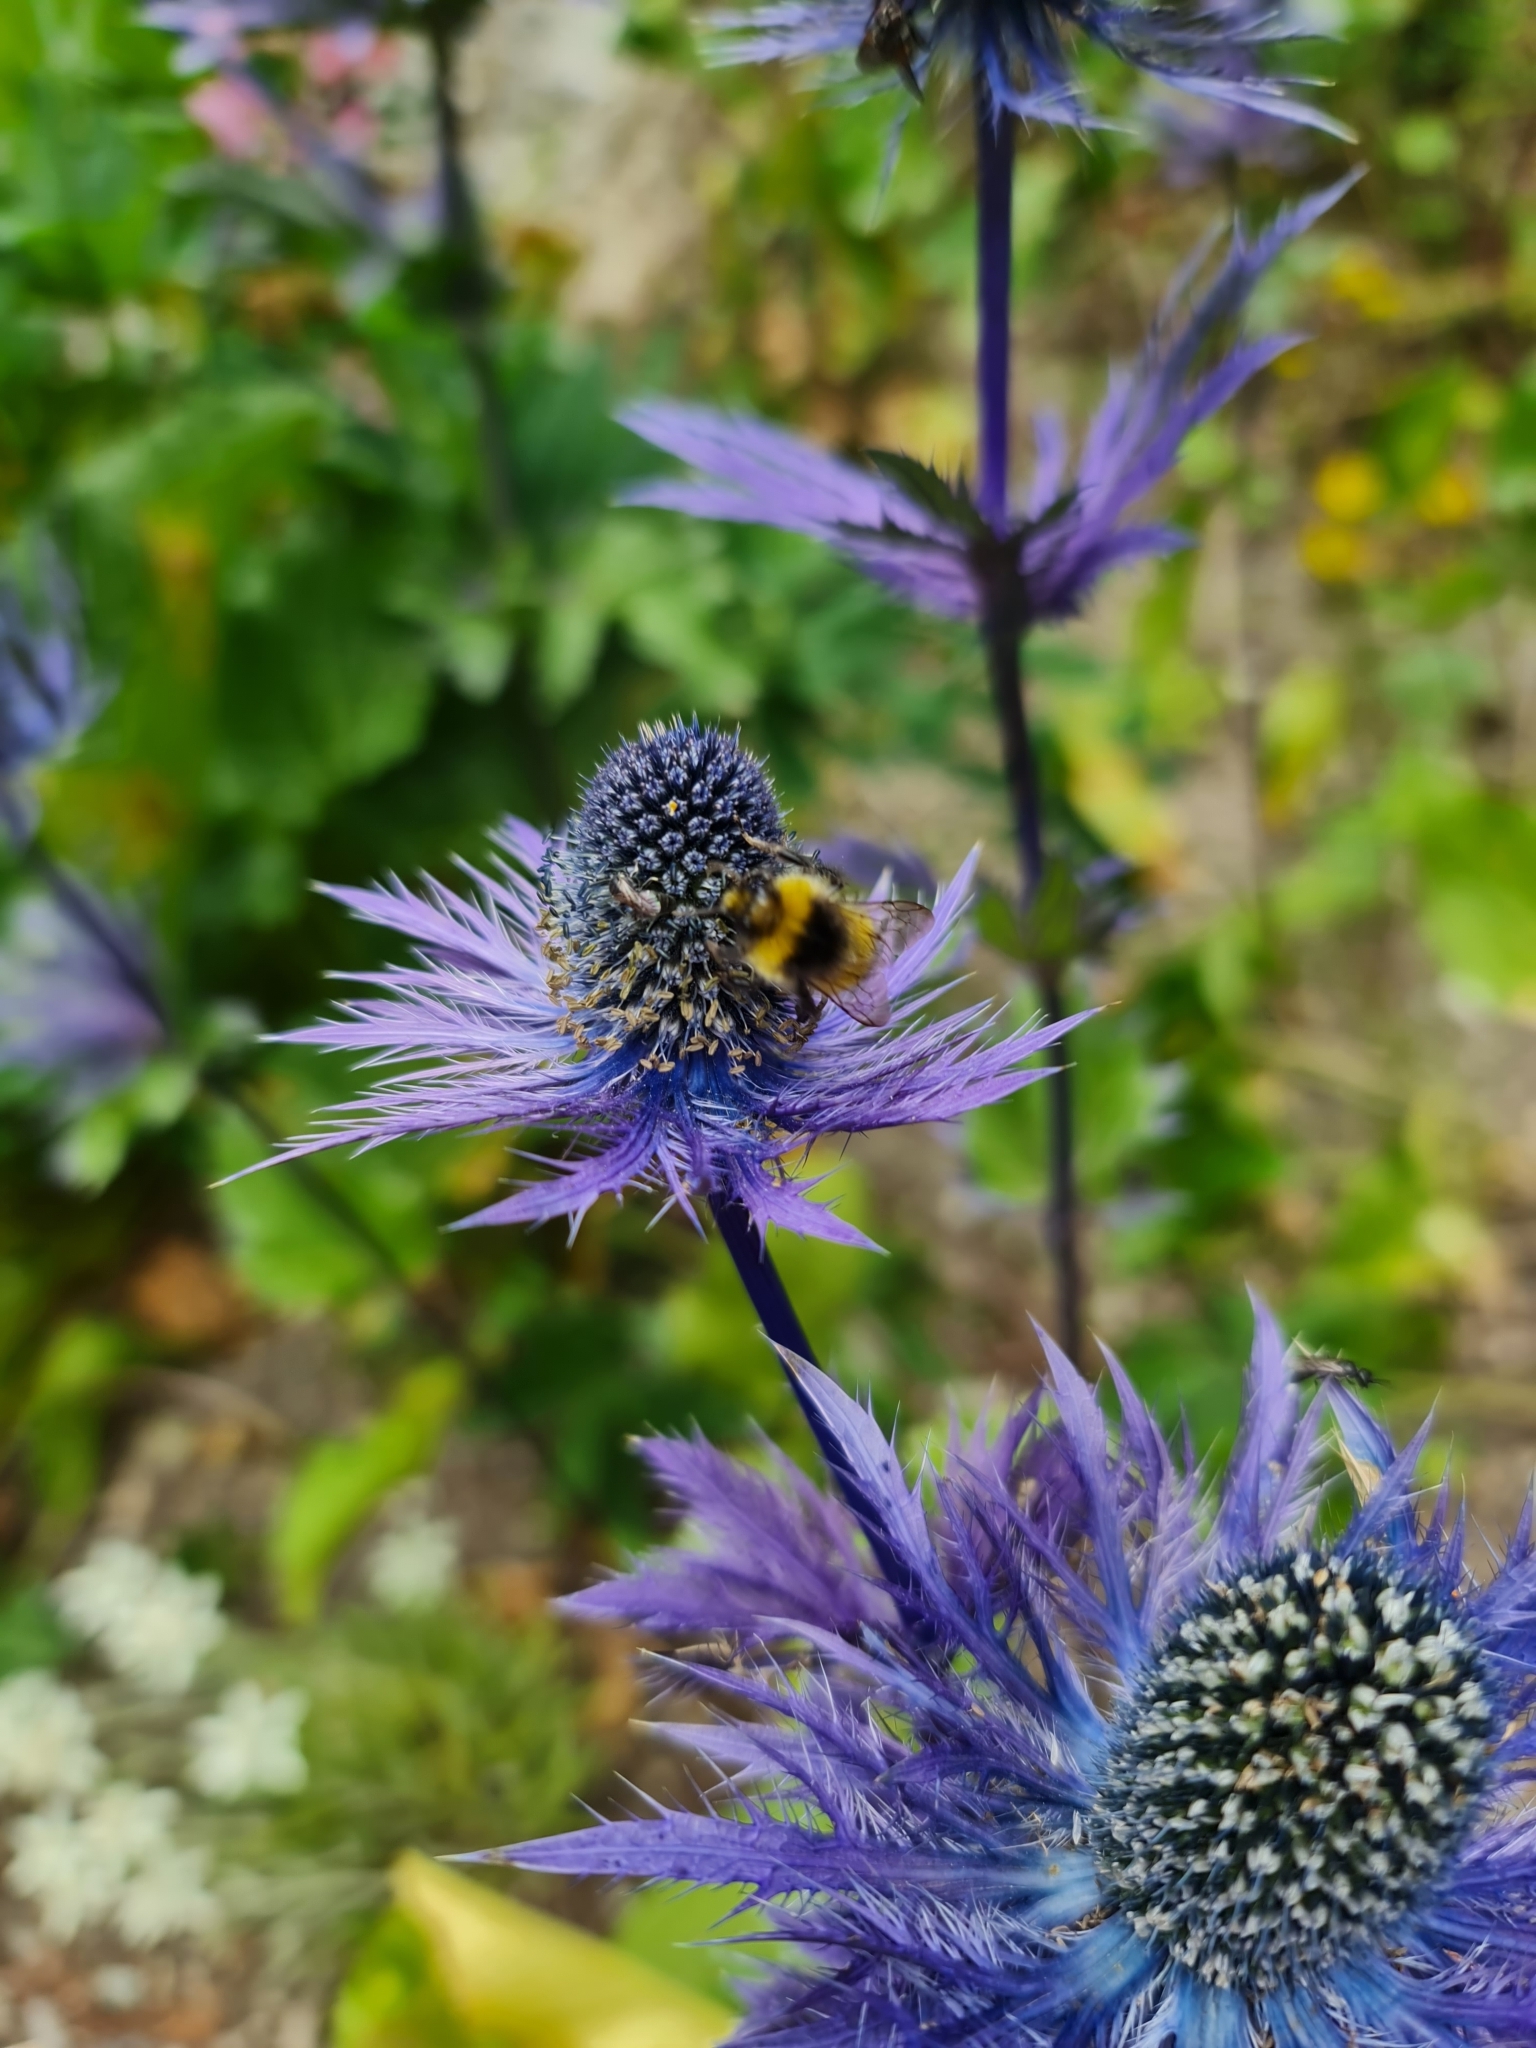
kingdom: Plantae
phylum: Tracheophyta
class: Magnoliopsida
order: Apiales
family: Apiaceae
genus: Eryngium
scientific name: Eryngium alpinum
